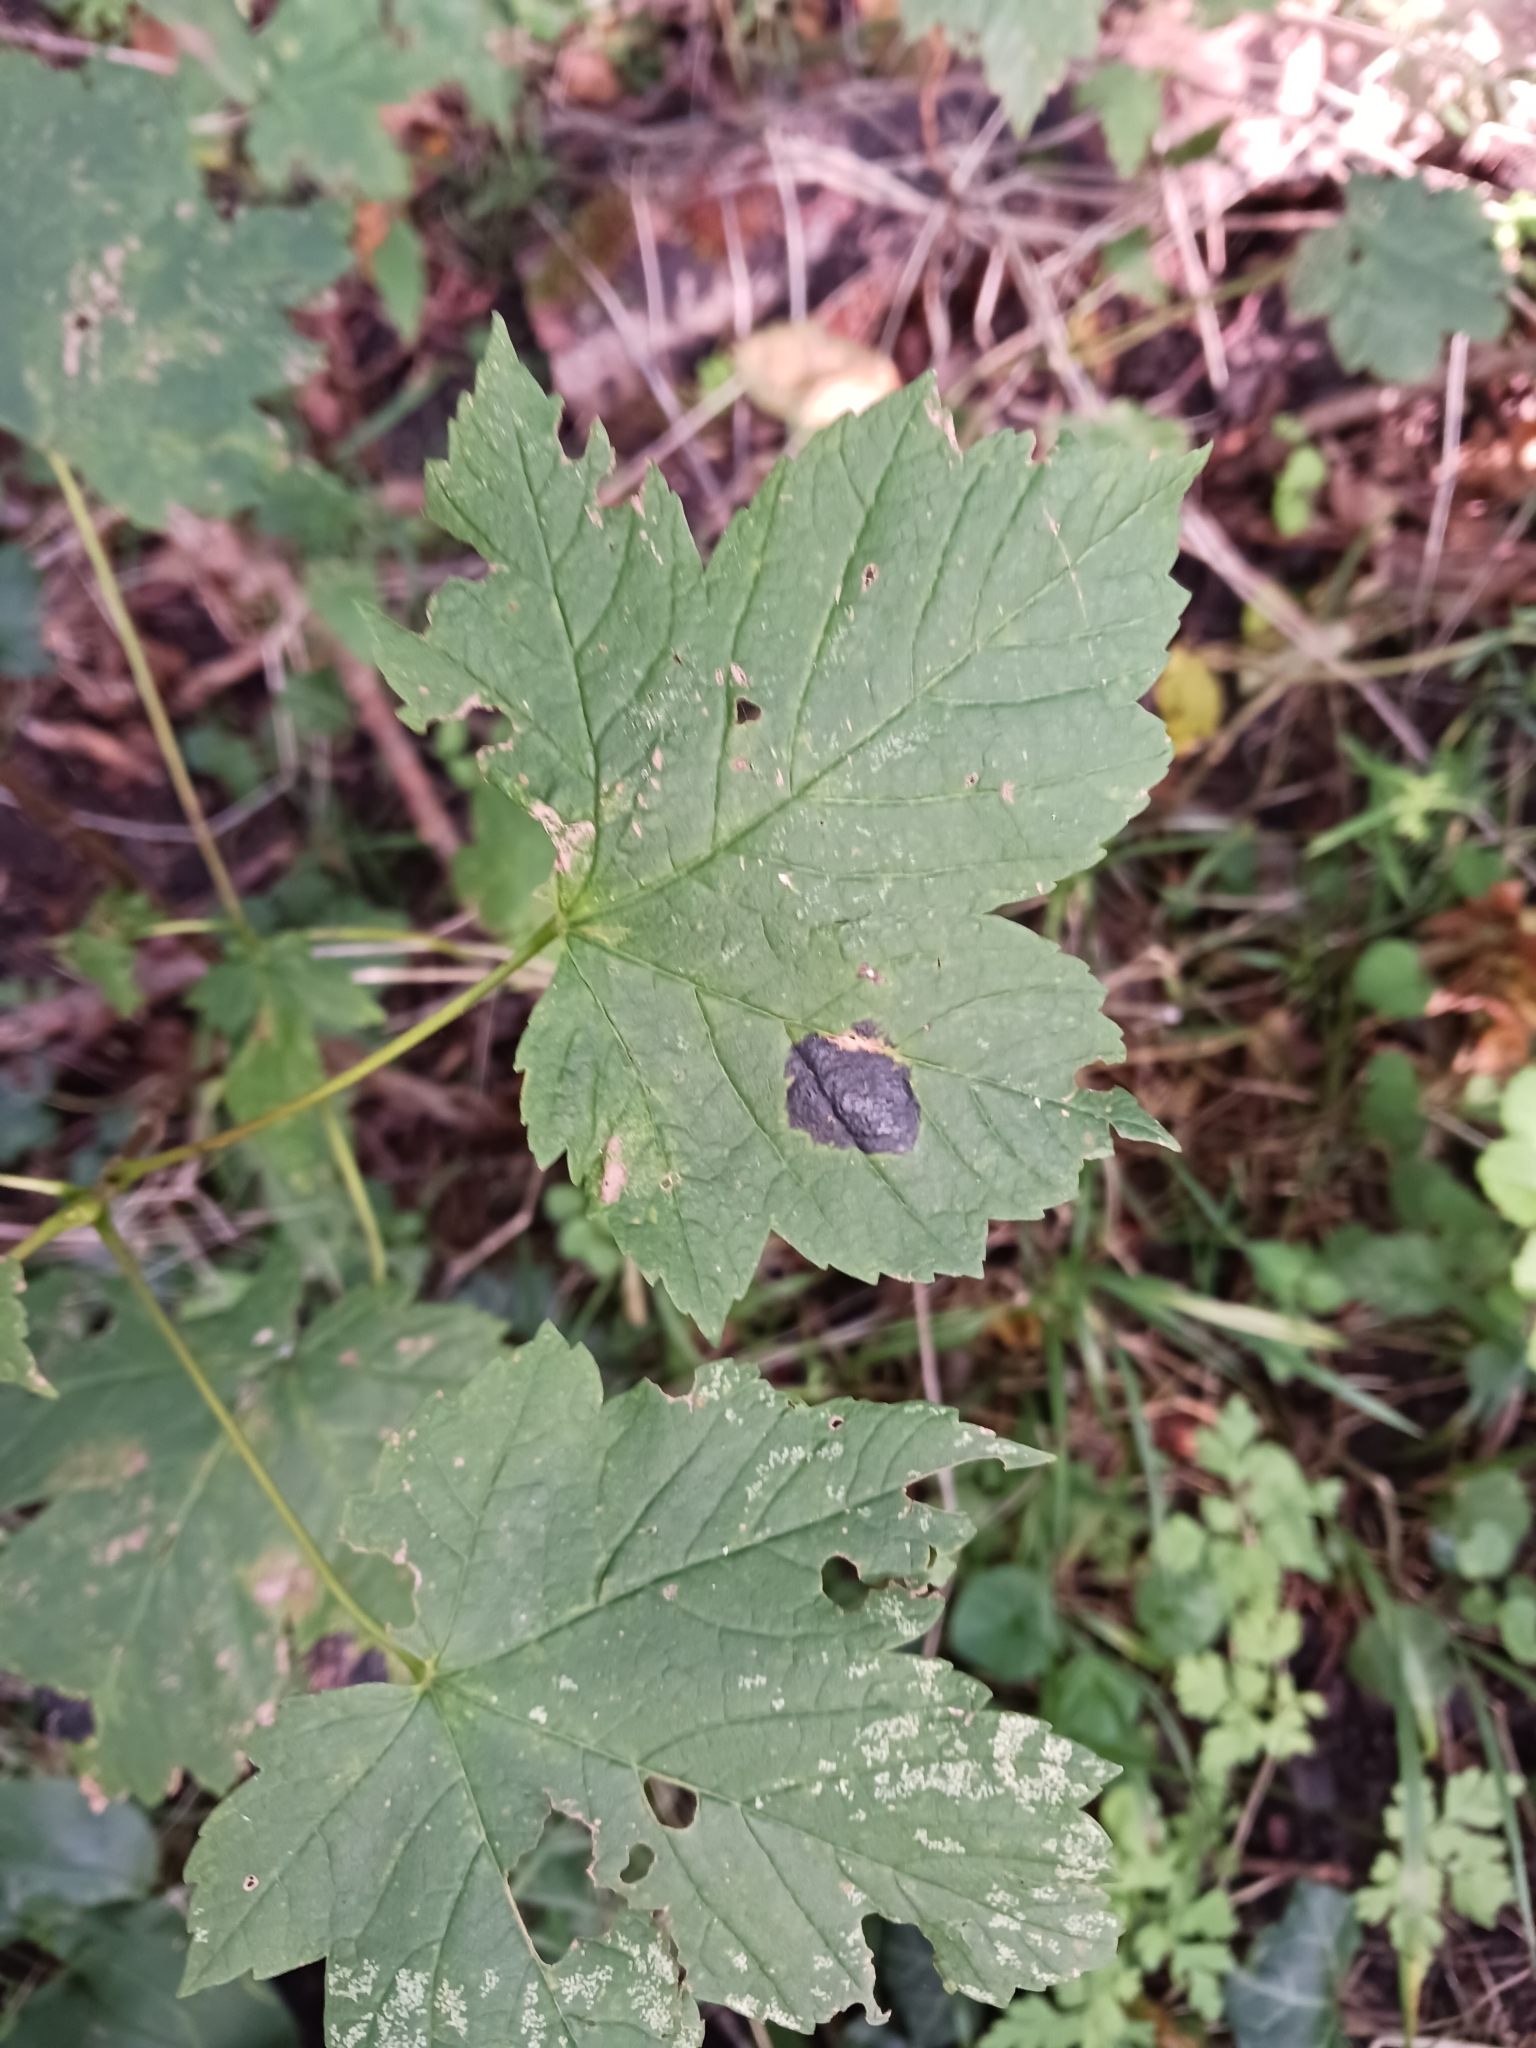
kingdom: Fungi
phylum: Ascomycota
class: Leotiomycetes
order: Rhytismatales
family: Rhytismataceae
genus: Rhytisma
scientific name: Rhytisma acerinum
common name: European tar spot
